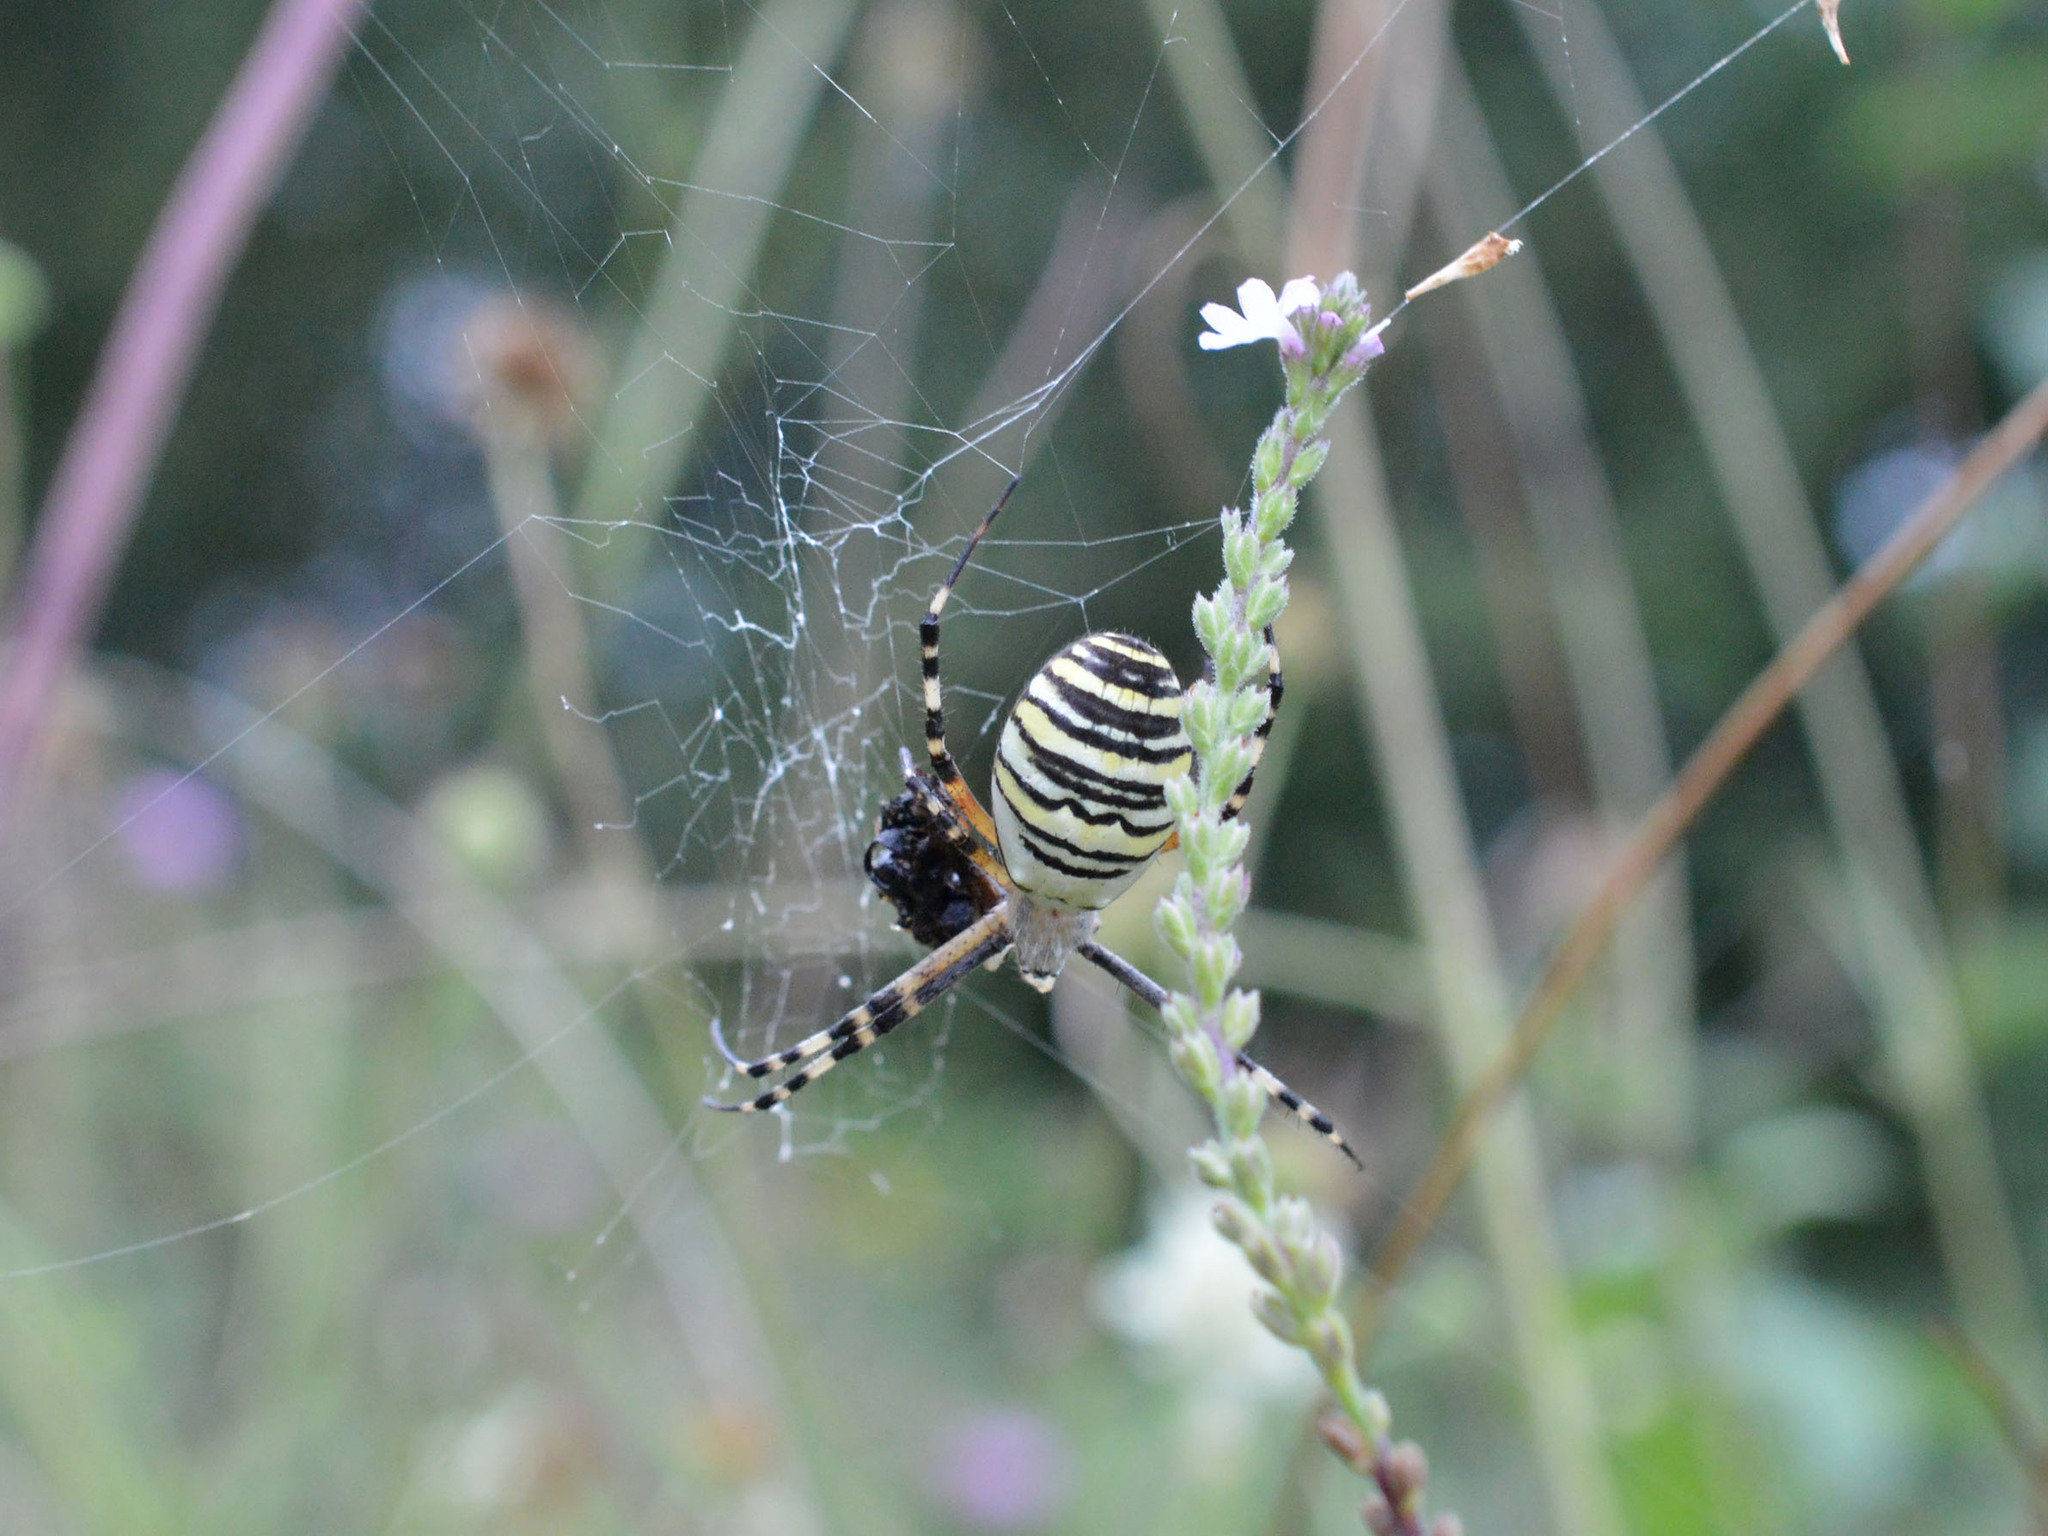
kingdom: Animalia
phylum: Arthropoda
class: Arachnida
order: Araneae
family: Araneidae
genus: Argiope
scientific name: Argiope bruennichi
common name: Wasp spider
